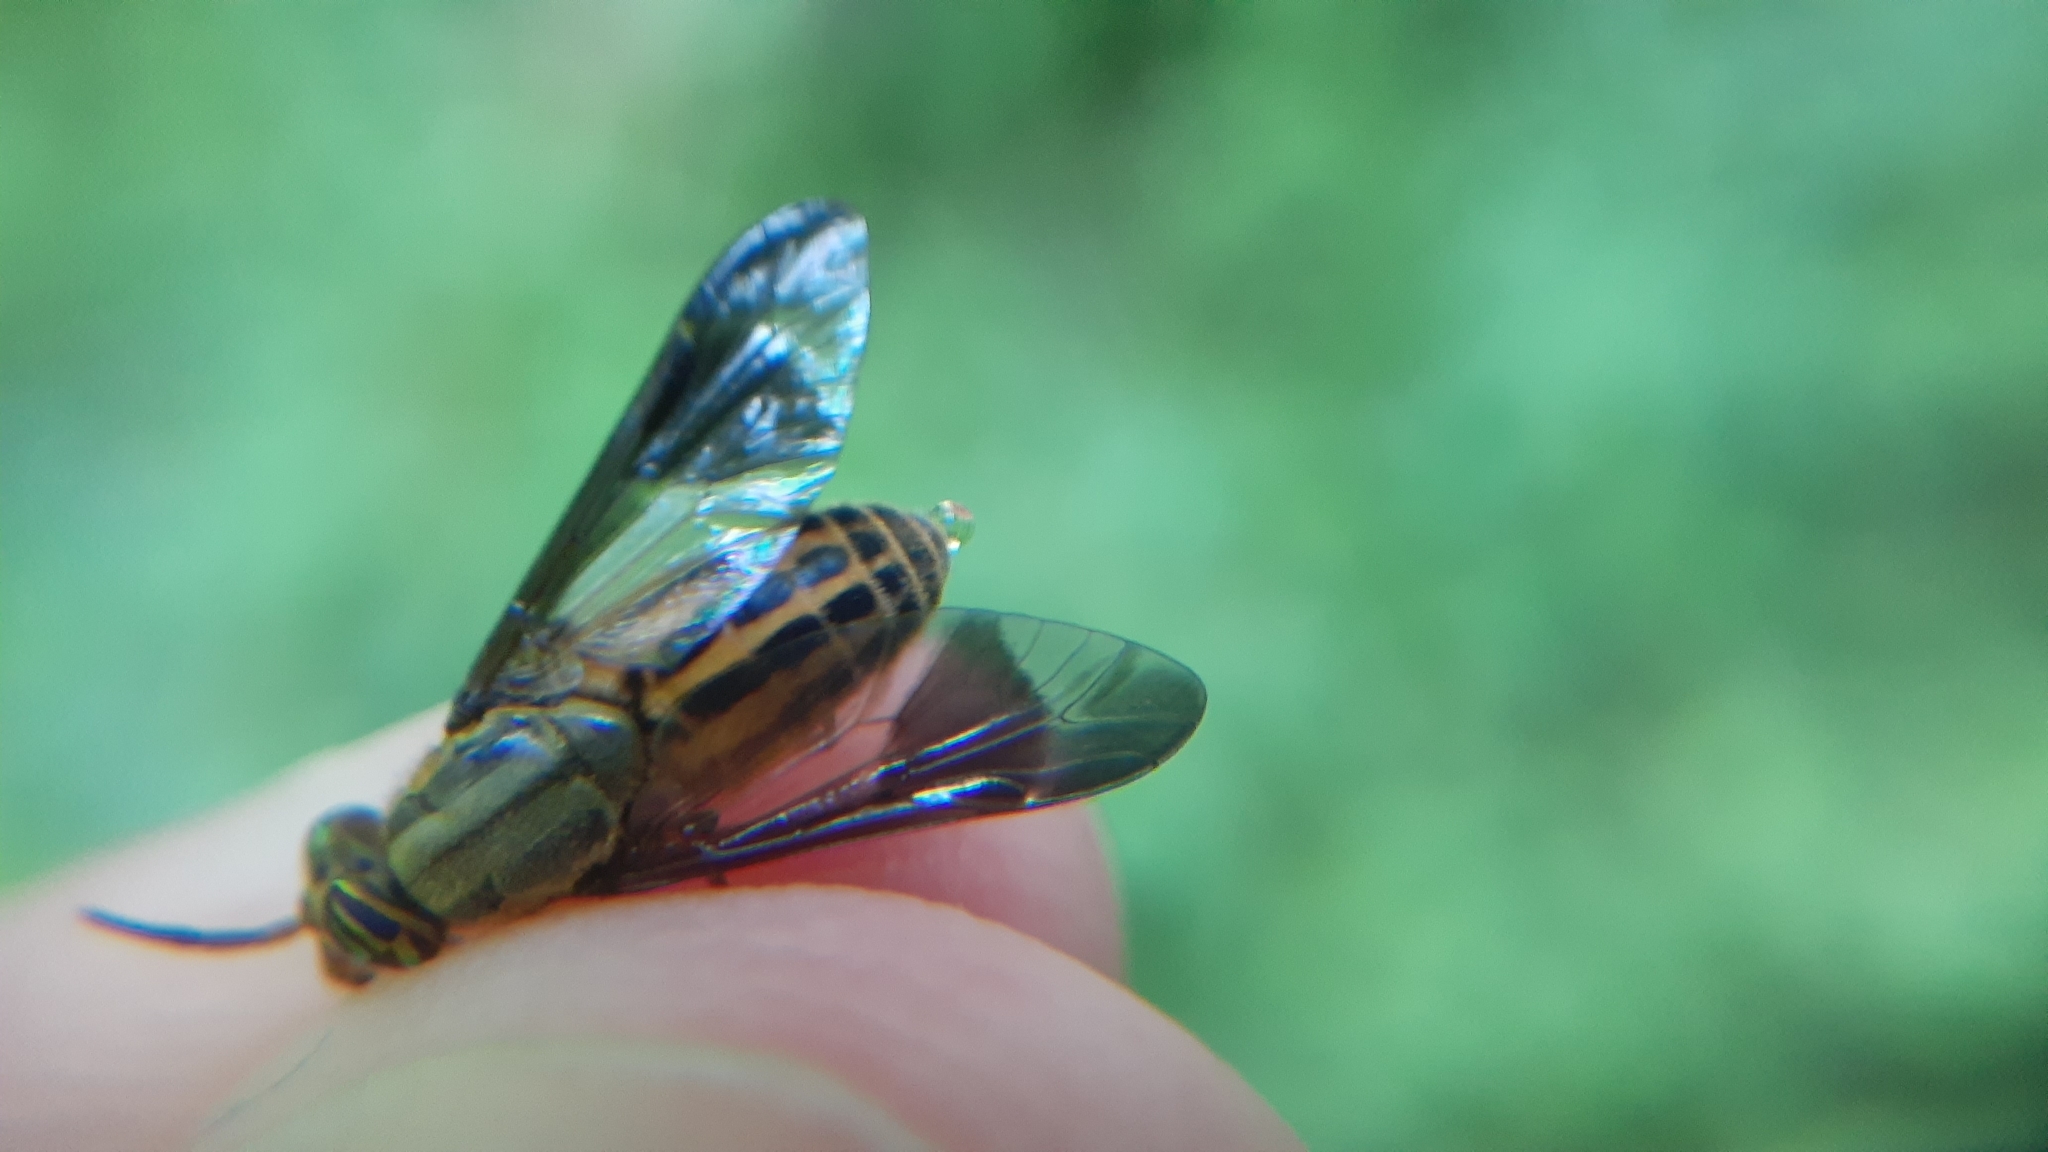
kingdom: Animalia
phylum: Arthropoda
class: Insecta
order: Diptera
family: Tabanidae
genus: Chrysops
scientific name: Chrysops aberrans
